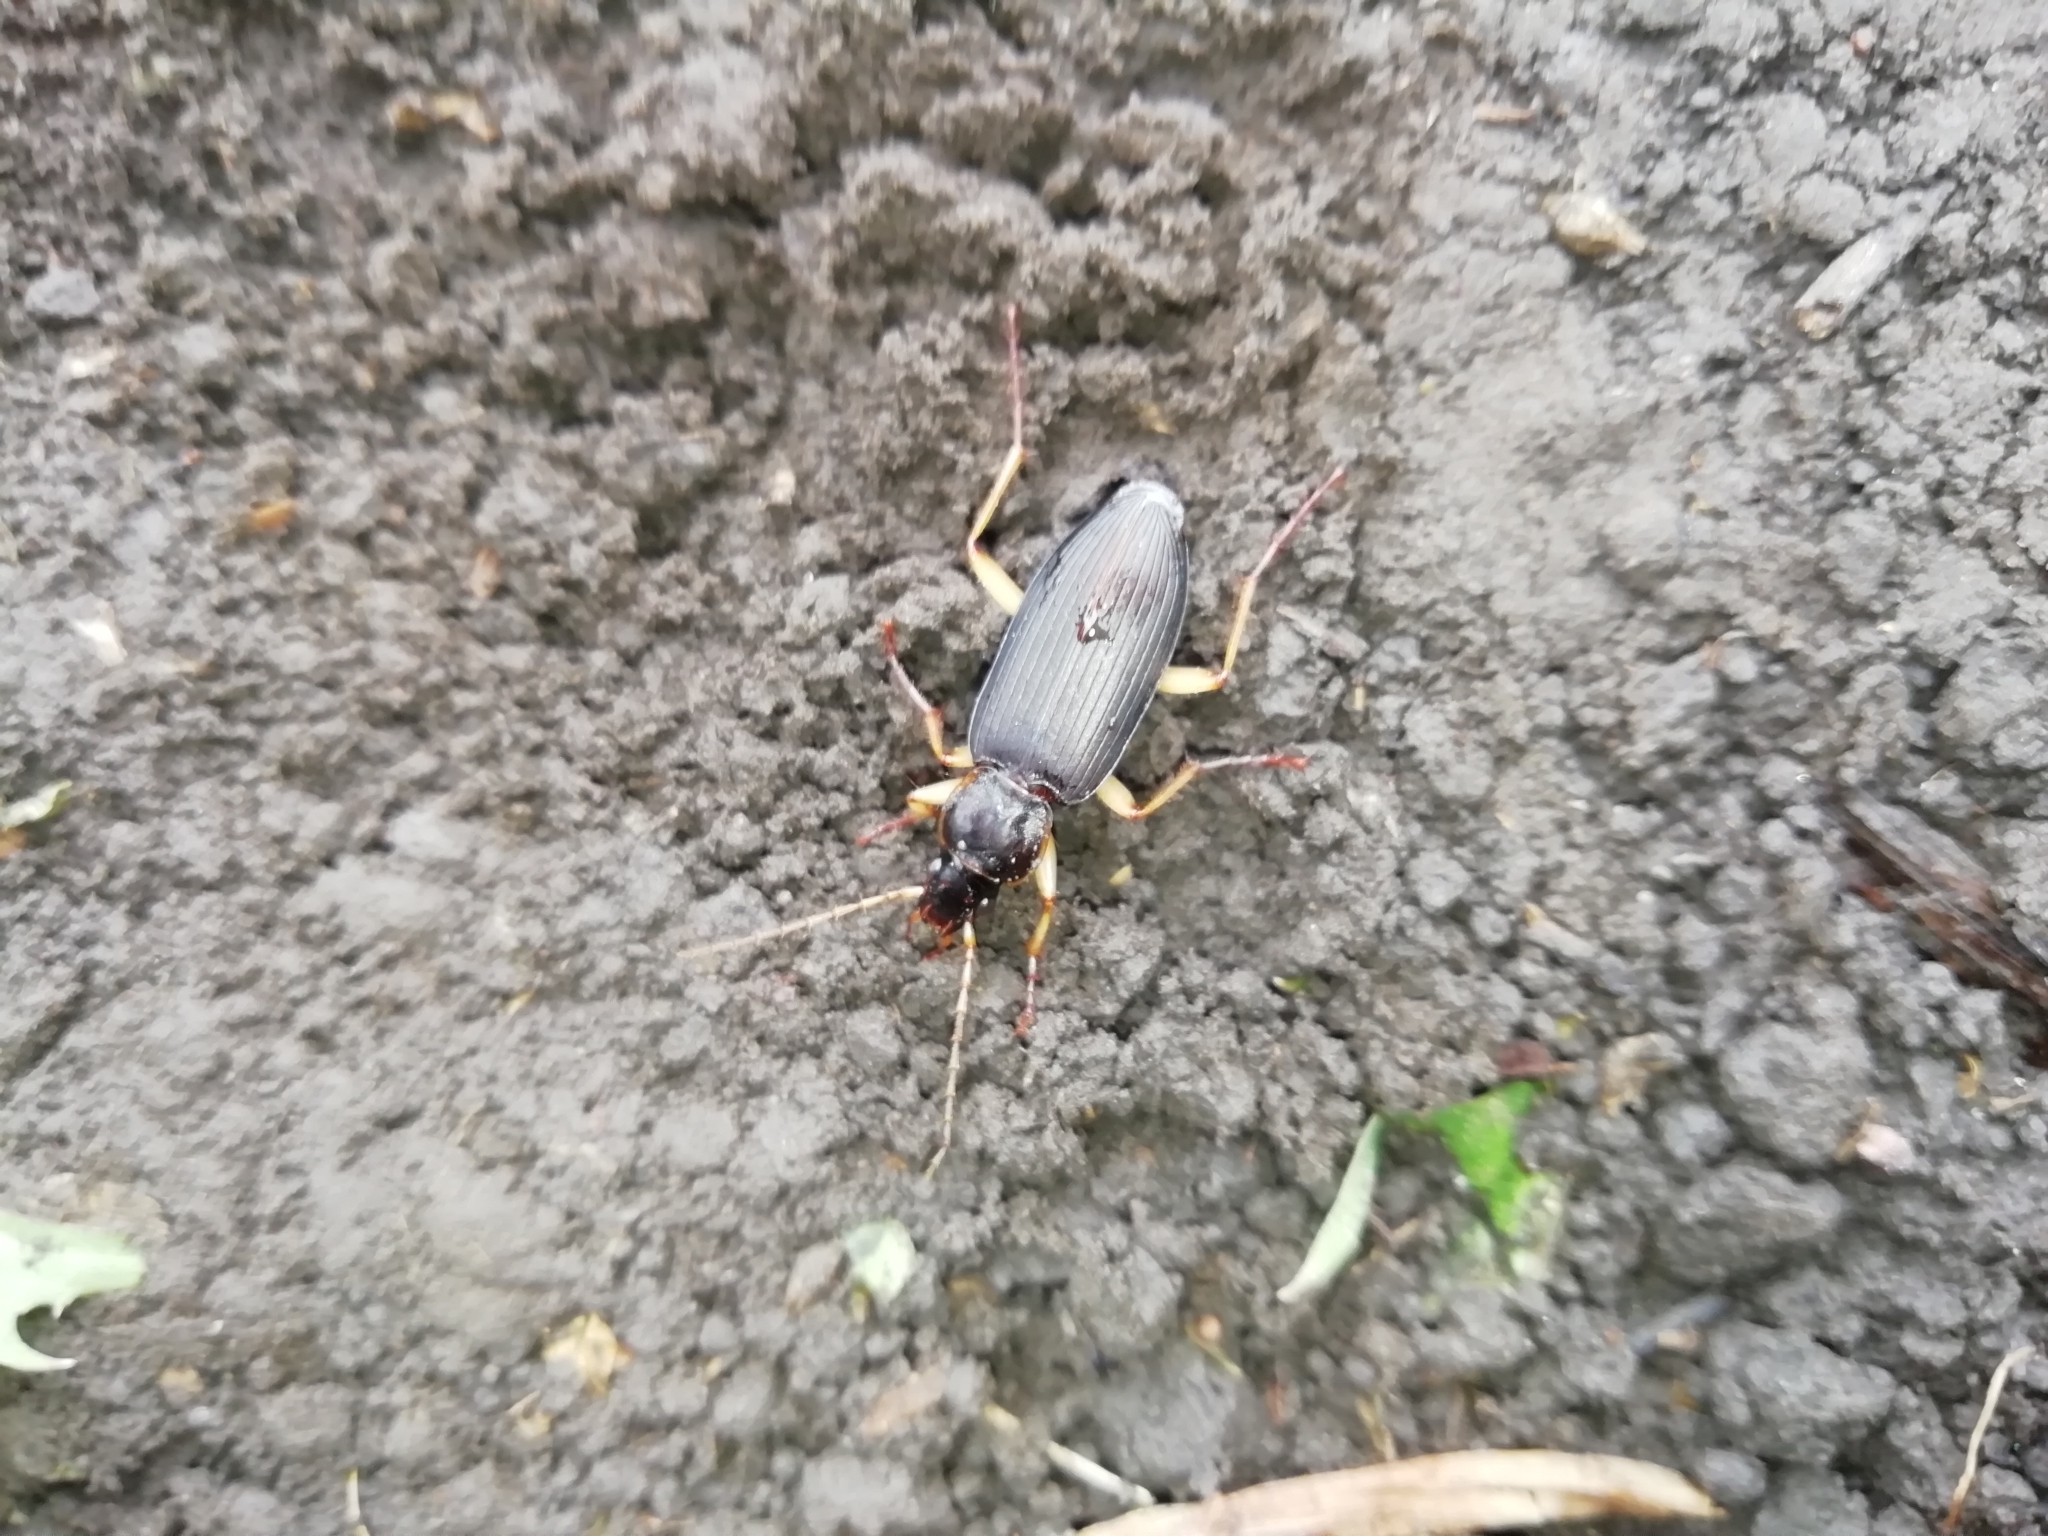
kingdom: Animalia
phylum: Arthropoda
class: Insecta
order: Coleoptera
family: Carabidae
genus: Dolichus
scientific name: Dolichus halensis
